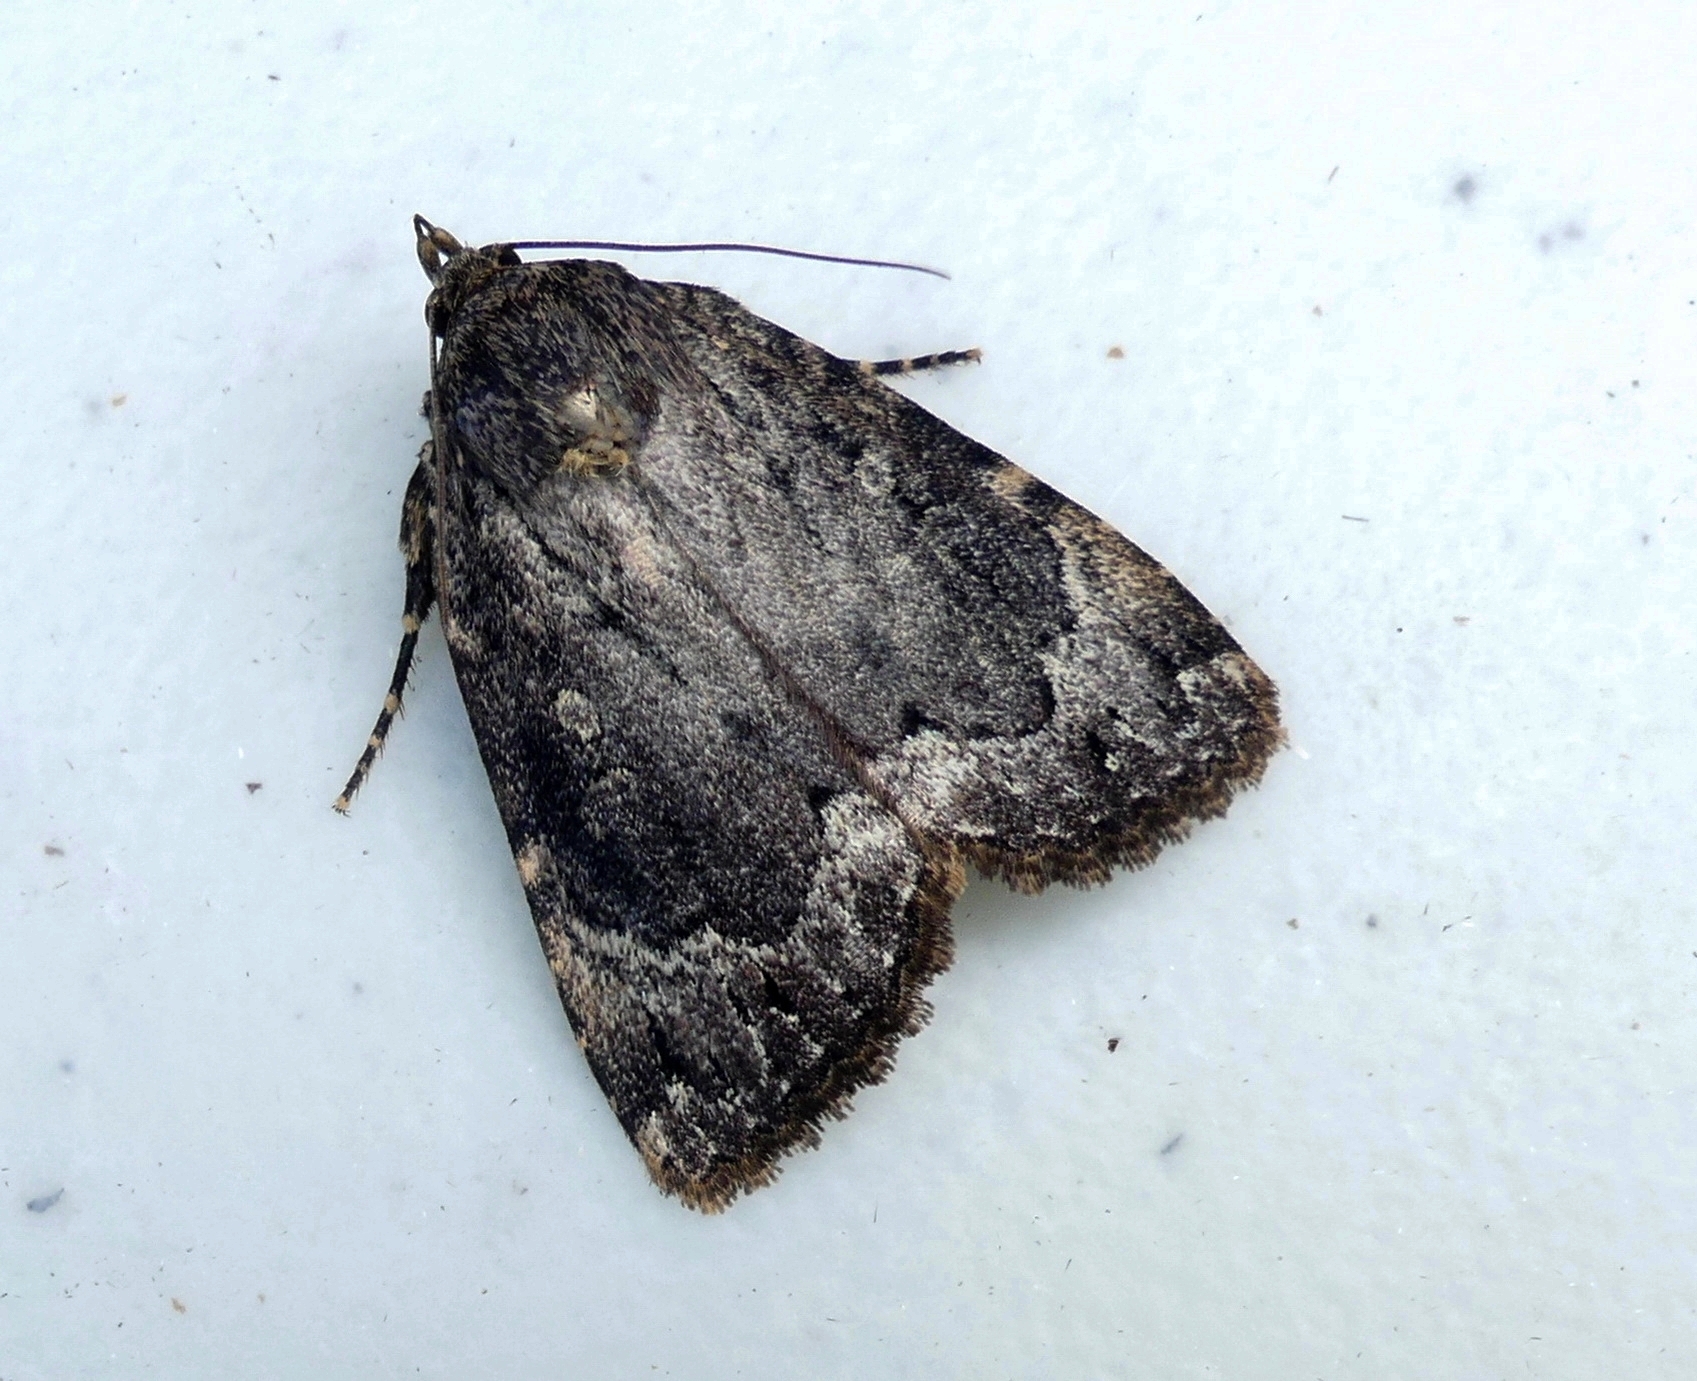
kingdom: Animalia
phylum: Arthropoda
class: Insecta
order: Lepidoptera
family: Noctuidae
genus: Amphipyra
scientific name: Amphipyra pyramidoides
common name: American copper underwing
